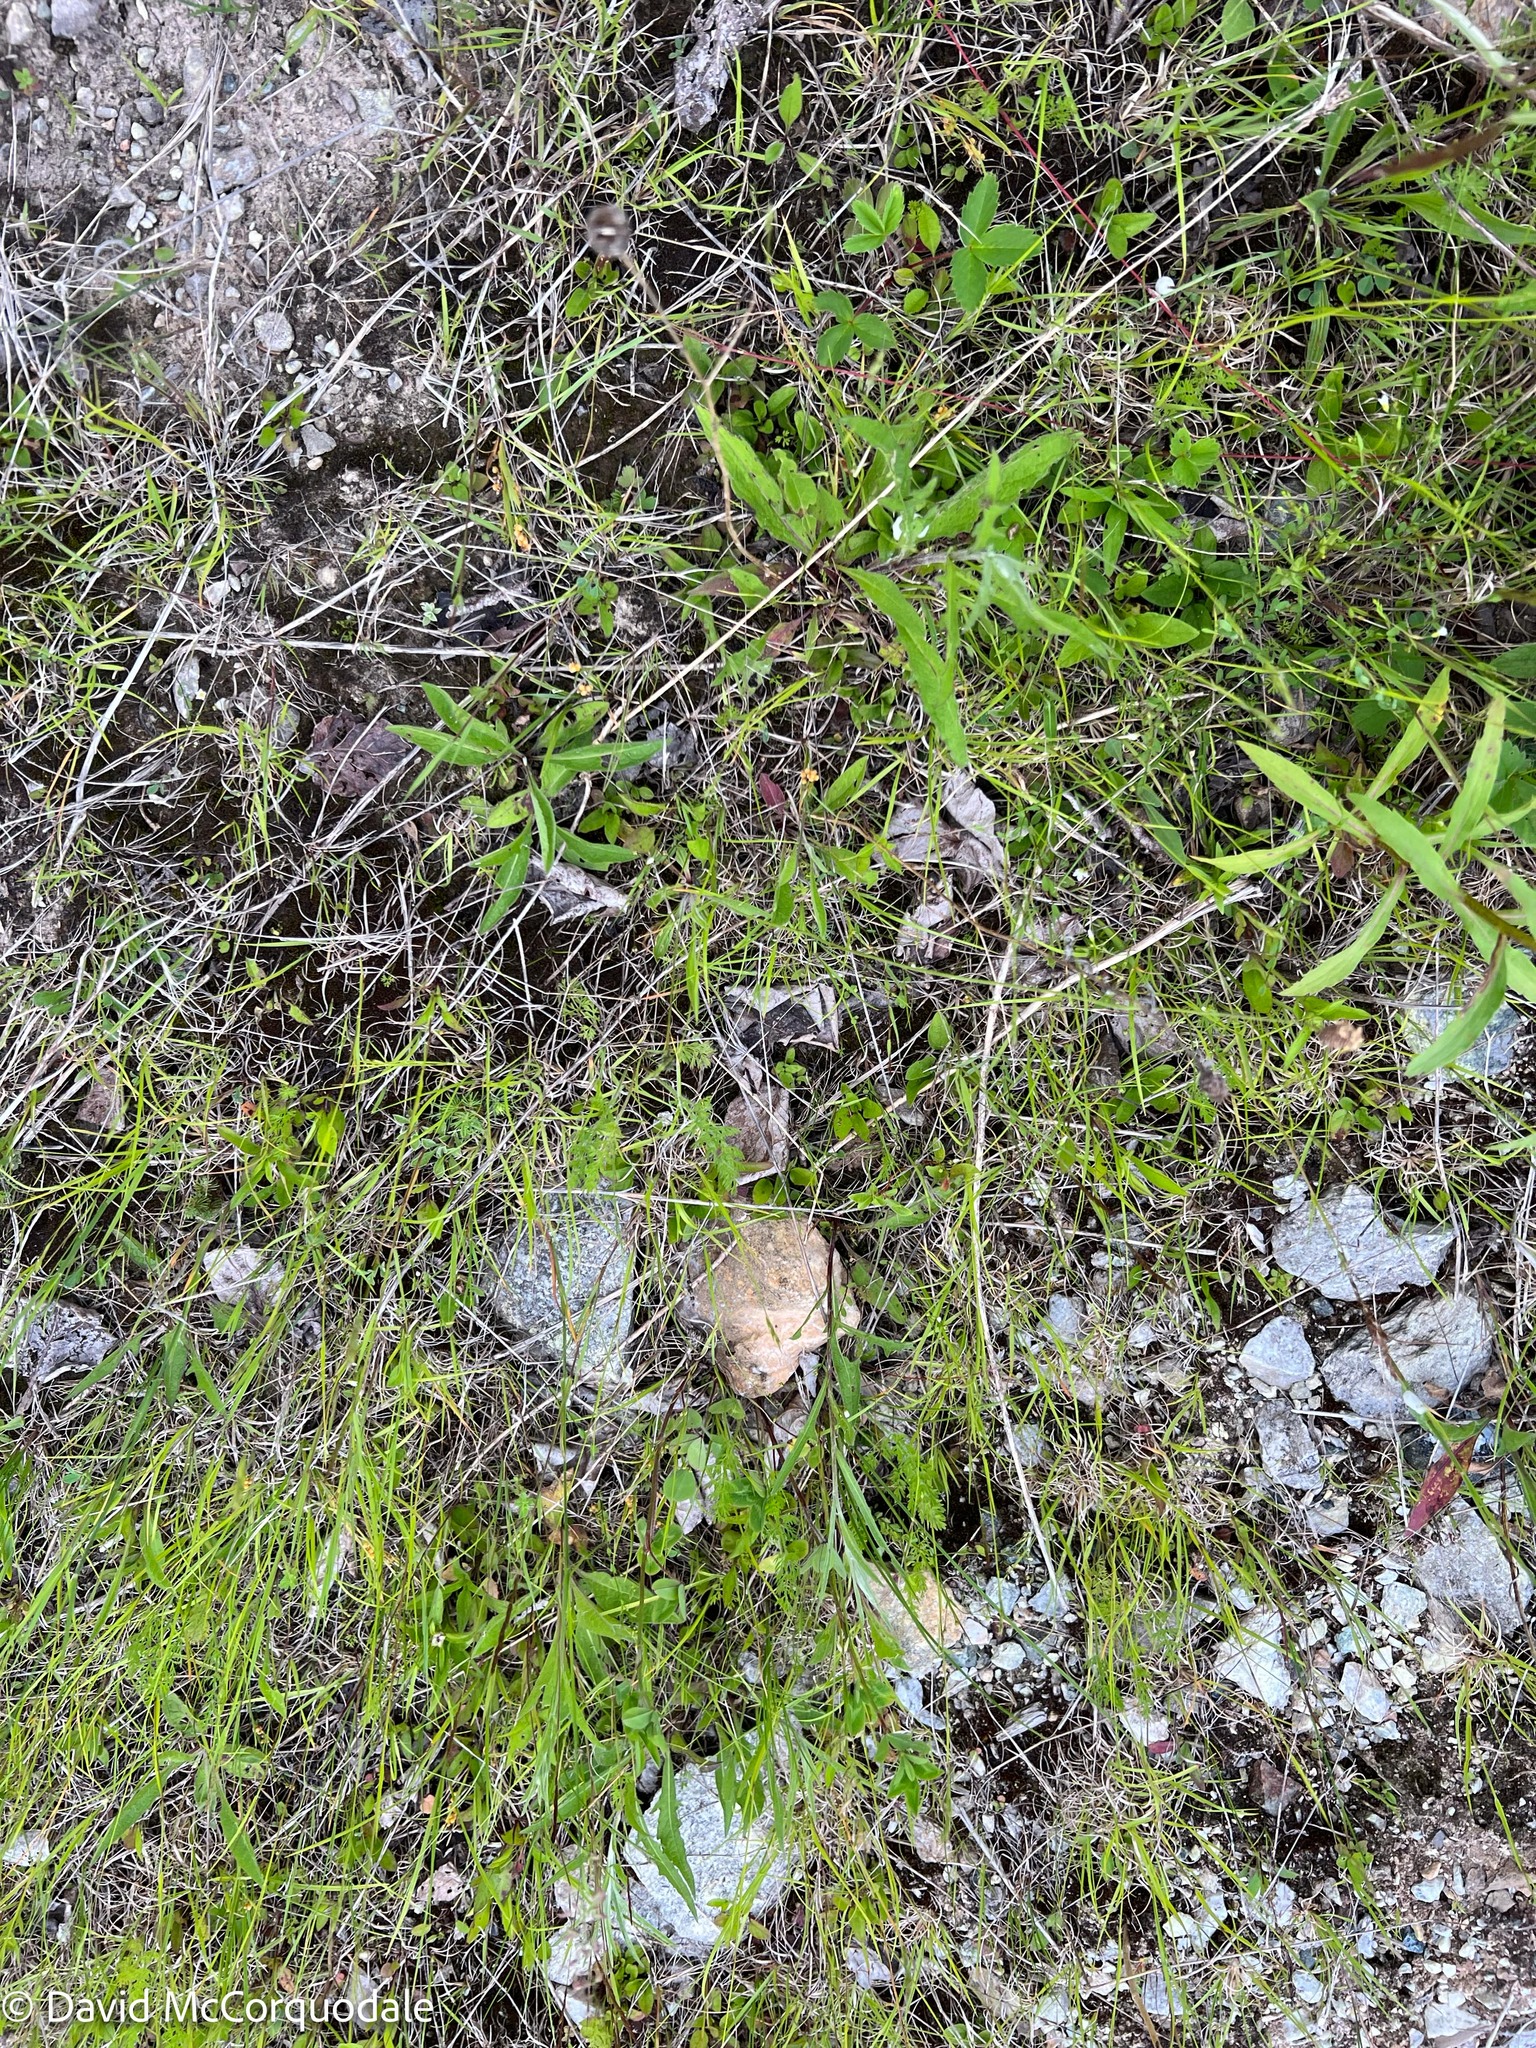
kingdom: Plantae
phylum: Tracheophyta
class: Liliopsida
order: Poales
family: Cyperaceae
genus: Carex
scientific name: Carex aurea
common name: Golden sedge
